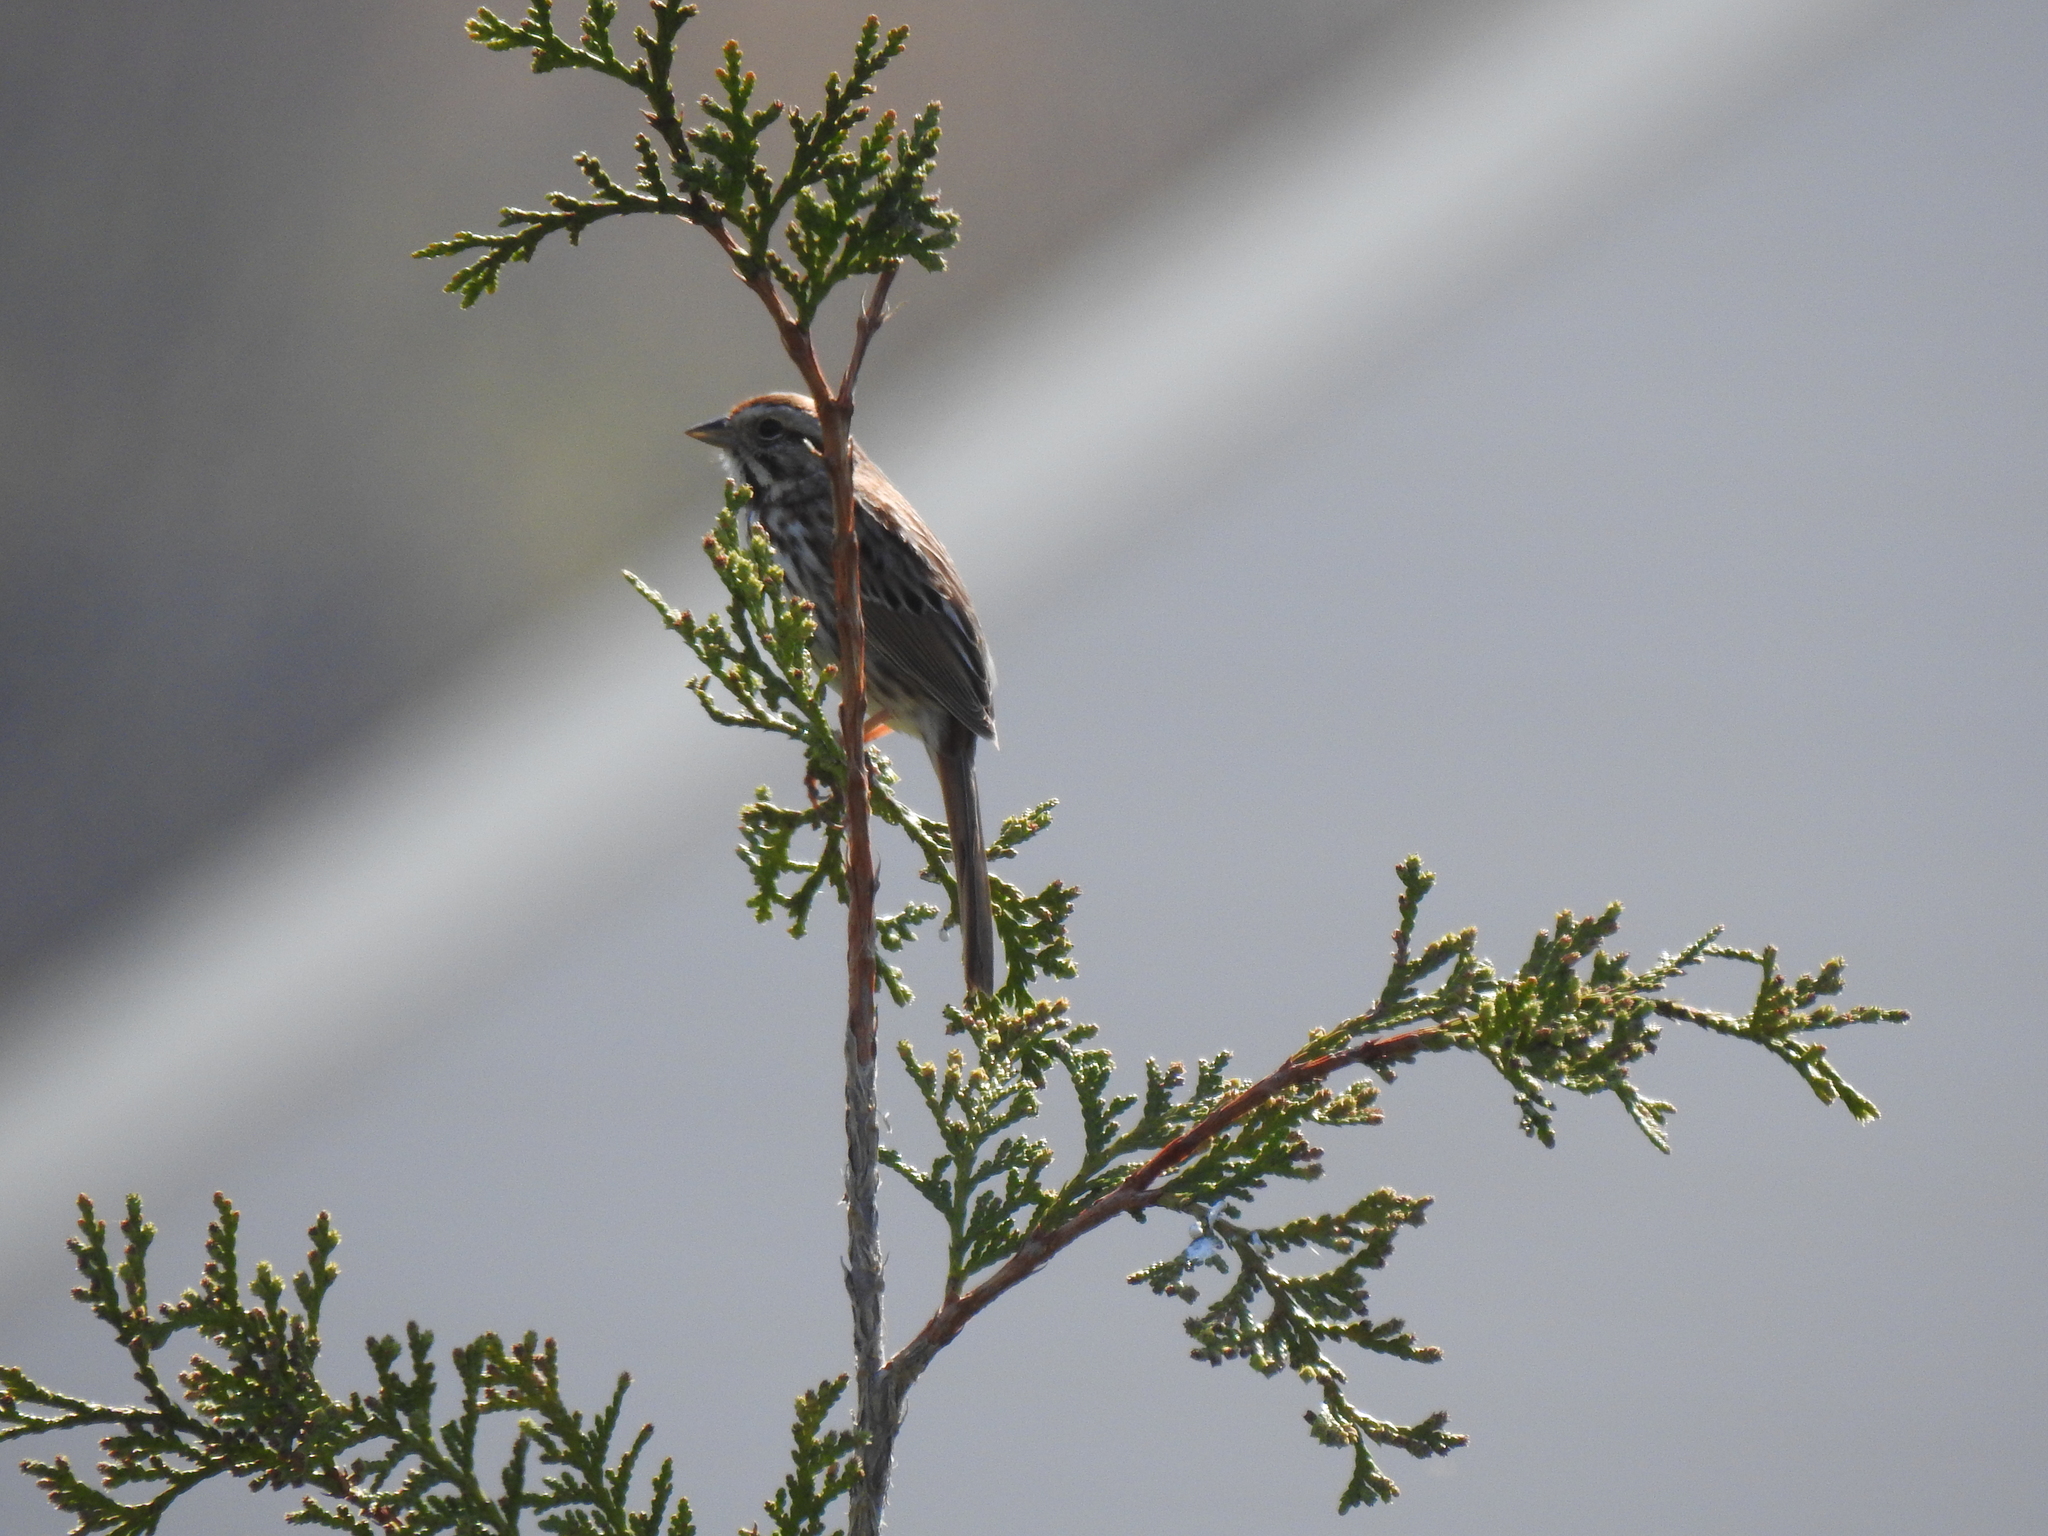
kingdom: Animalia
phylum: Chordata
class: Aves
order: Passeriformes
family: Passerellidae
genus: Melospiza
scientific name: Melospiza melodia
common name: Song sparrow
